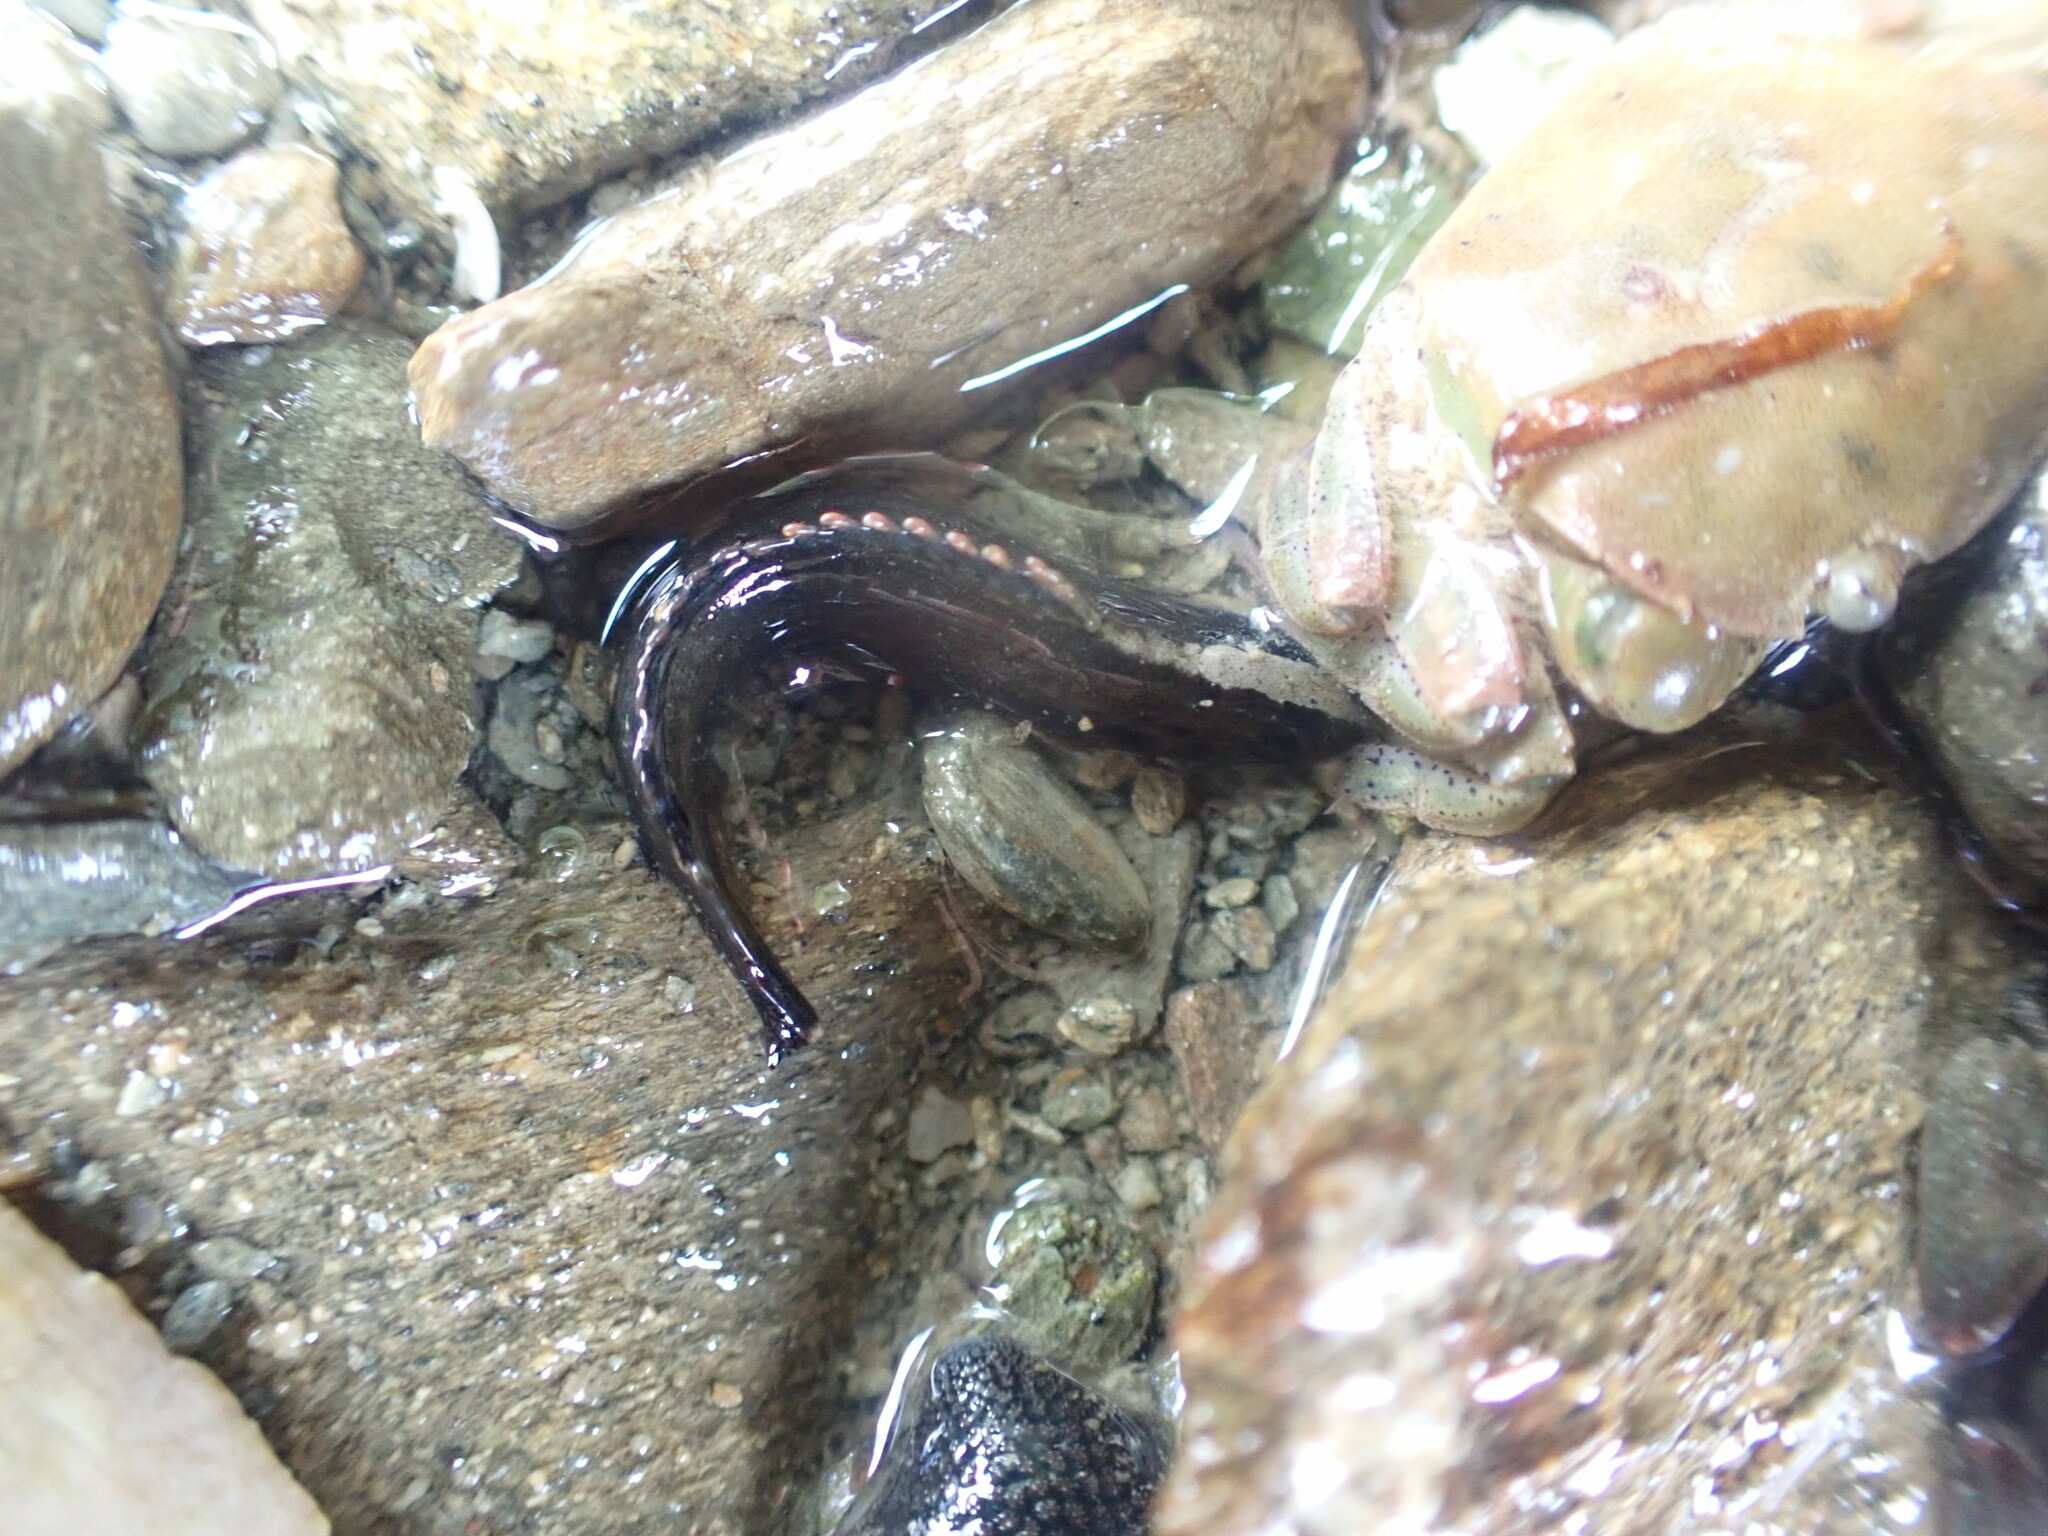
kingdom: Animalia
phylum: Chordata
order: Perciformes
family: Plesiopidae
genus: Acanthoclinus
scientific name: Acanthoclinus fuscus
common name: Olive rockfish
